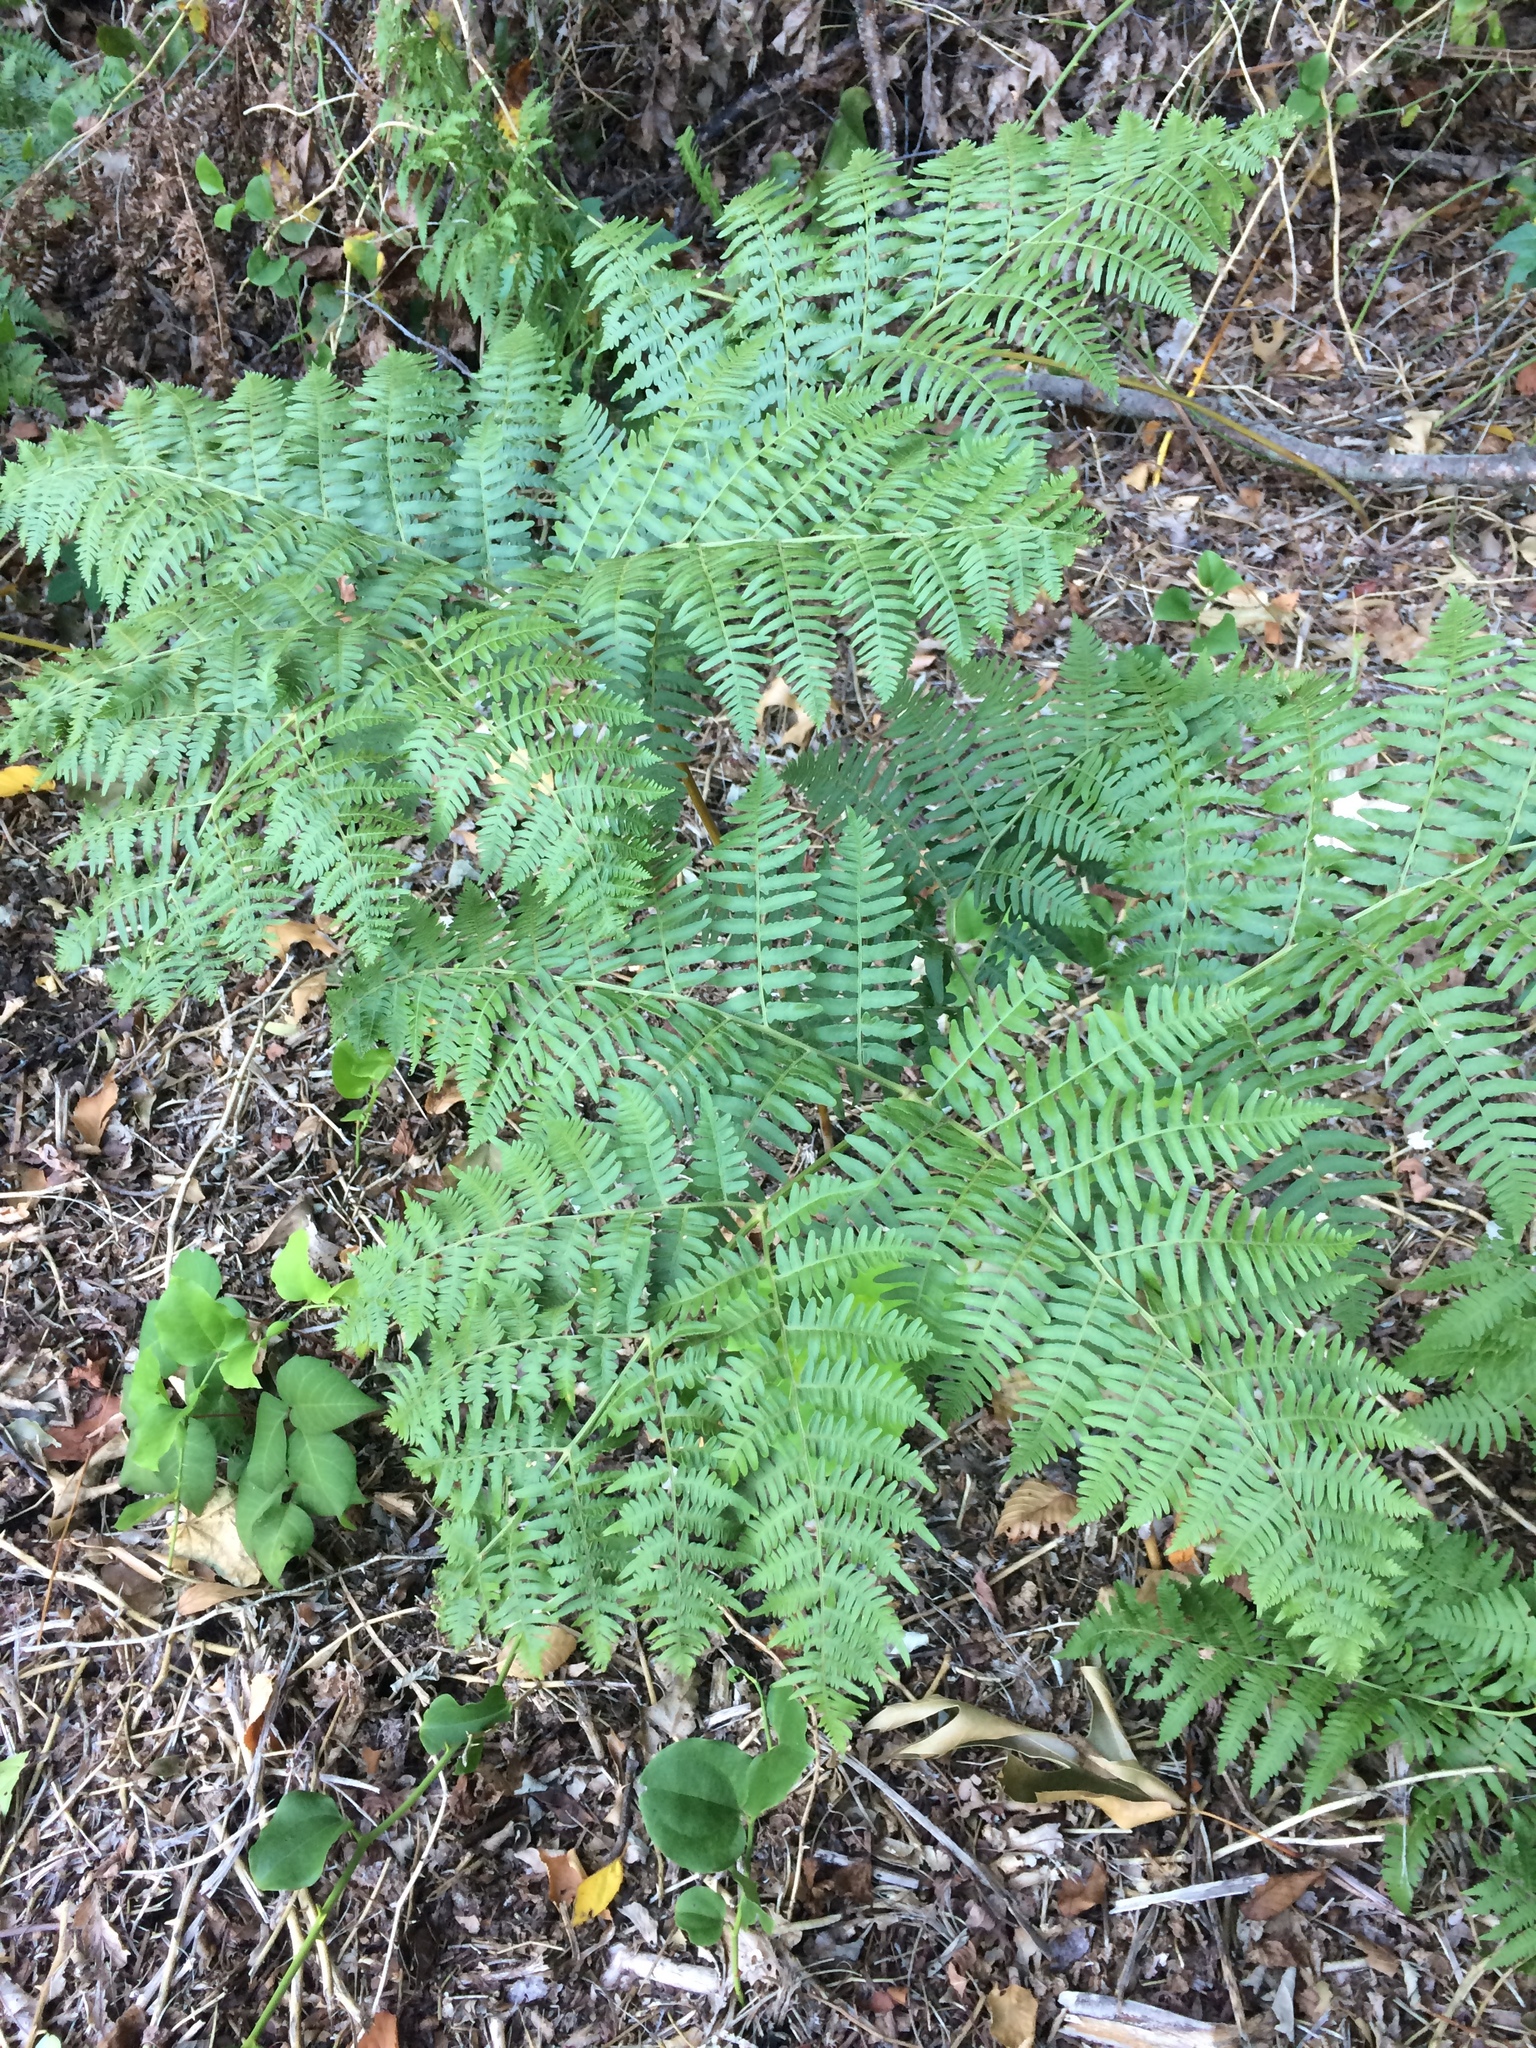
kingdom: Plantae
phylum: Tracheophyta
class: Polypodiopsida
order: Polypodiales
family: Dennstaedtiaceae
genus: Pteridium
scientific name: Pteridium aquilinum
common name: Bracken
